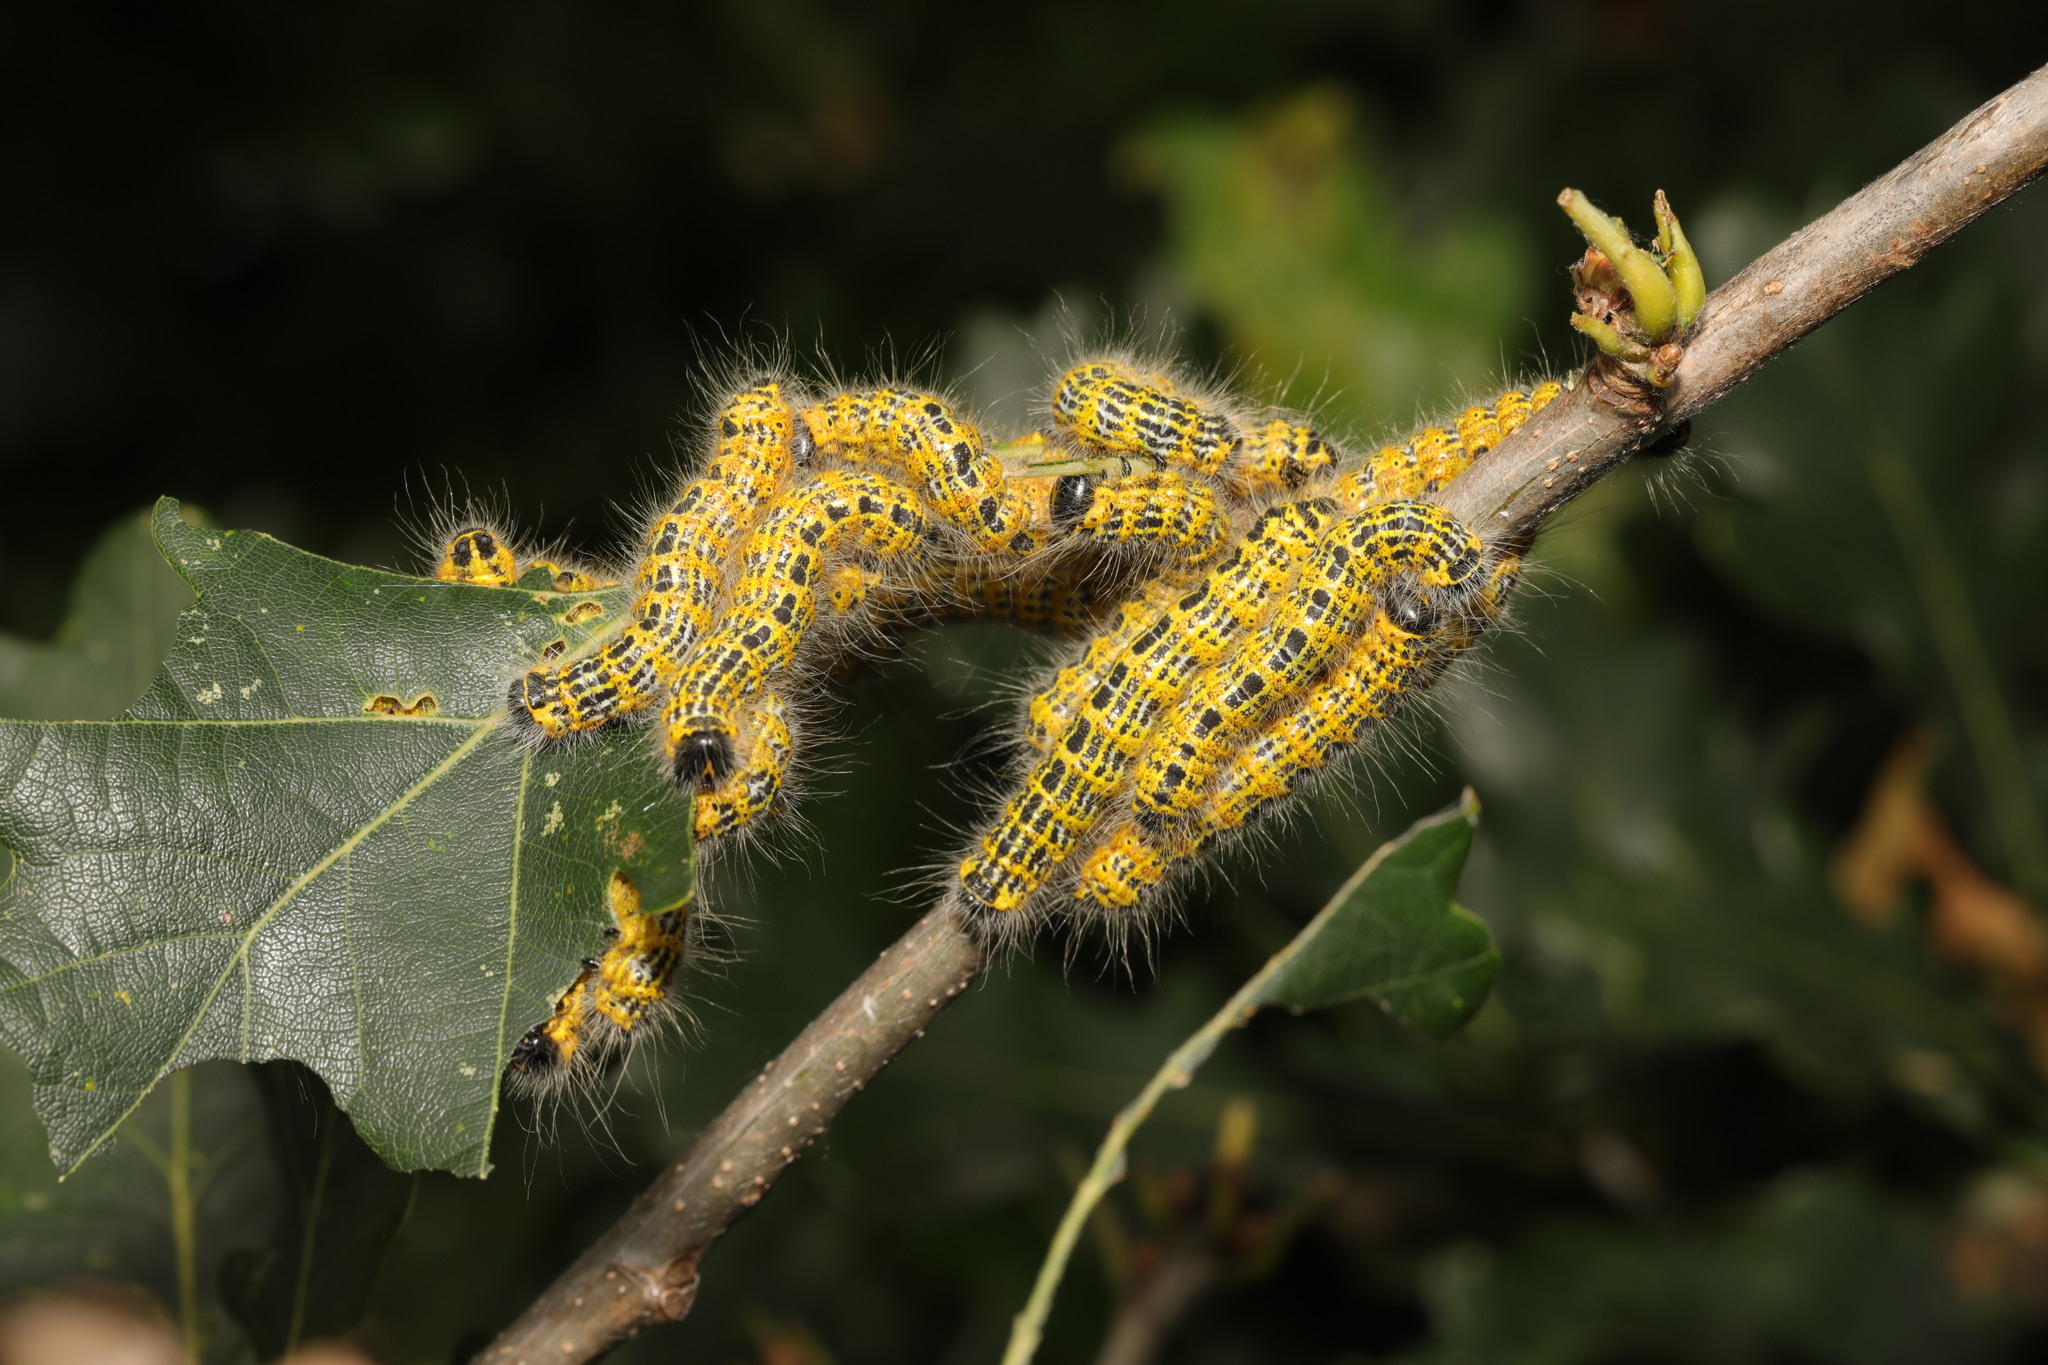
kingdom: Animalia
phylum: Arthropoda
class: Insecta
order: Lepidoptera
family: Notodontidae
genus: Phalera
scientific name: Phalera bucephala
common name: Buff-tip
